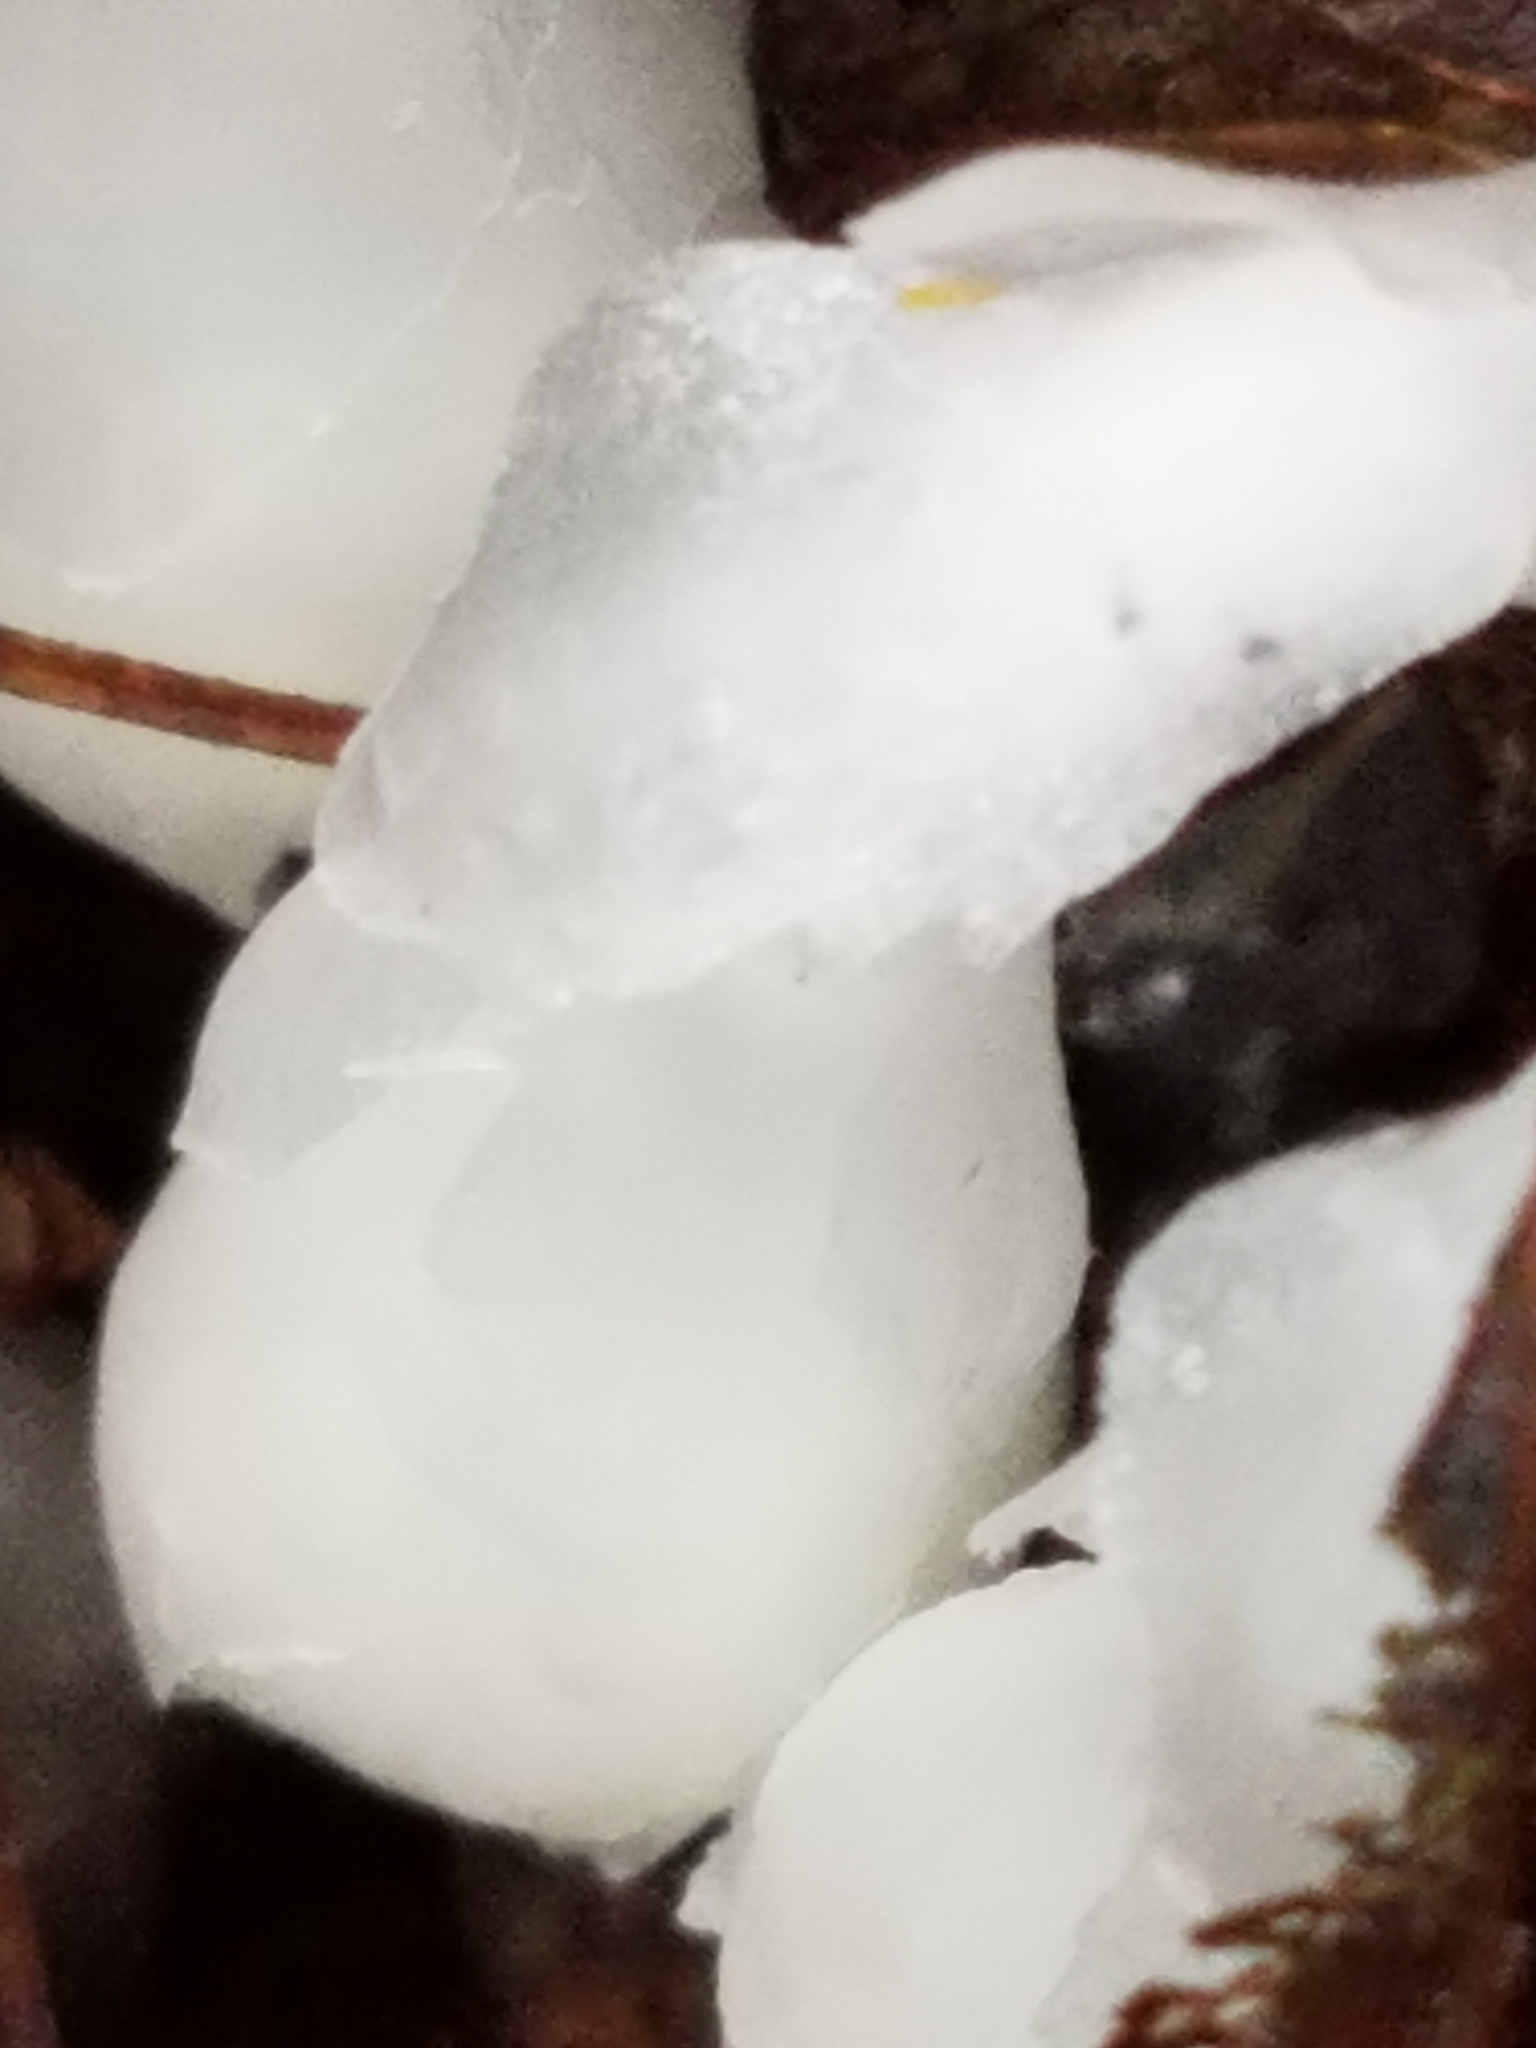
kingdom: Plantae
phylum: Tracheophyta
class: Magnoliopsida
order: Ericales
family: Ericaceae
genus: Monotropa
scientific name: Monotropa uniflora
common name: Convulsion root
